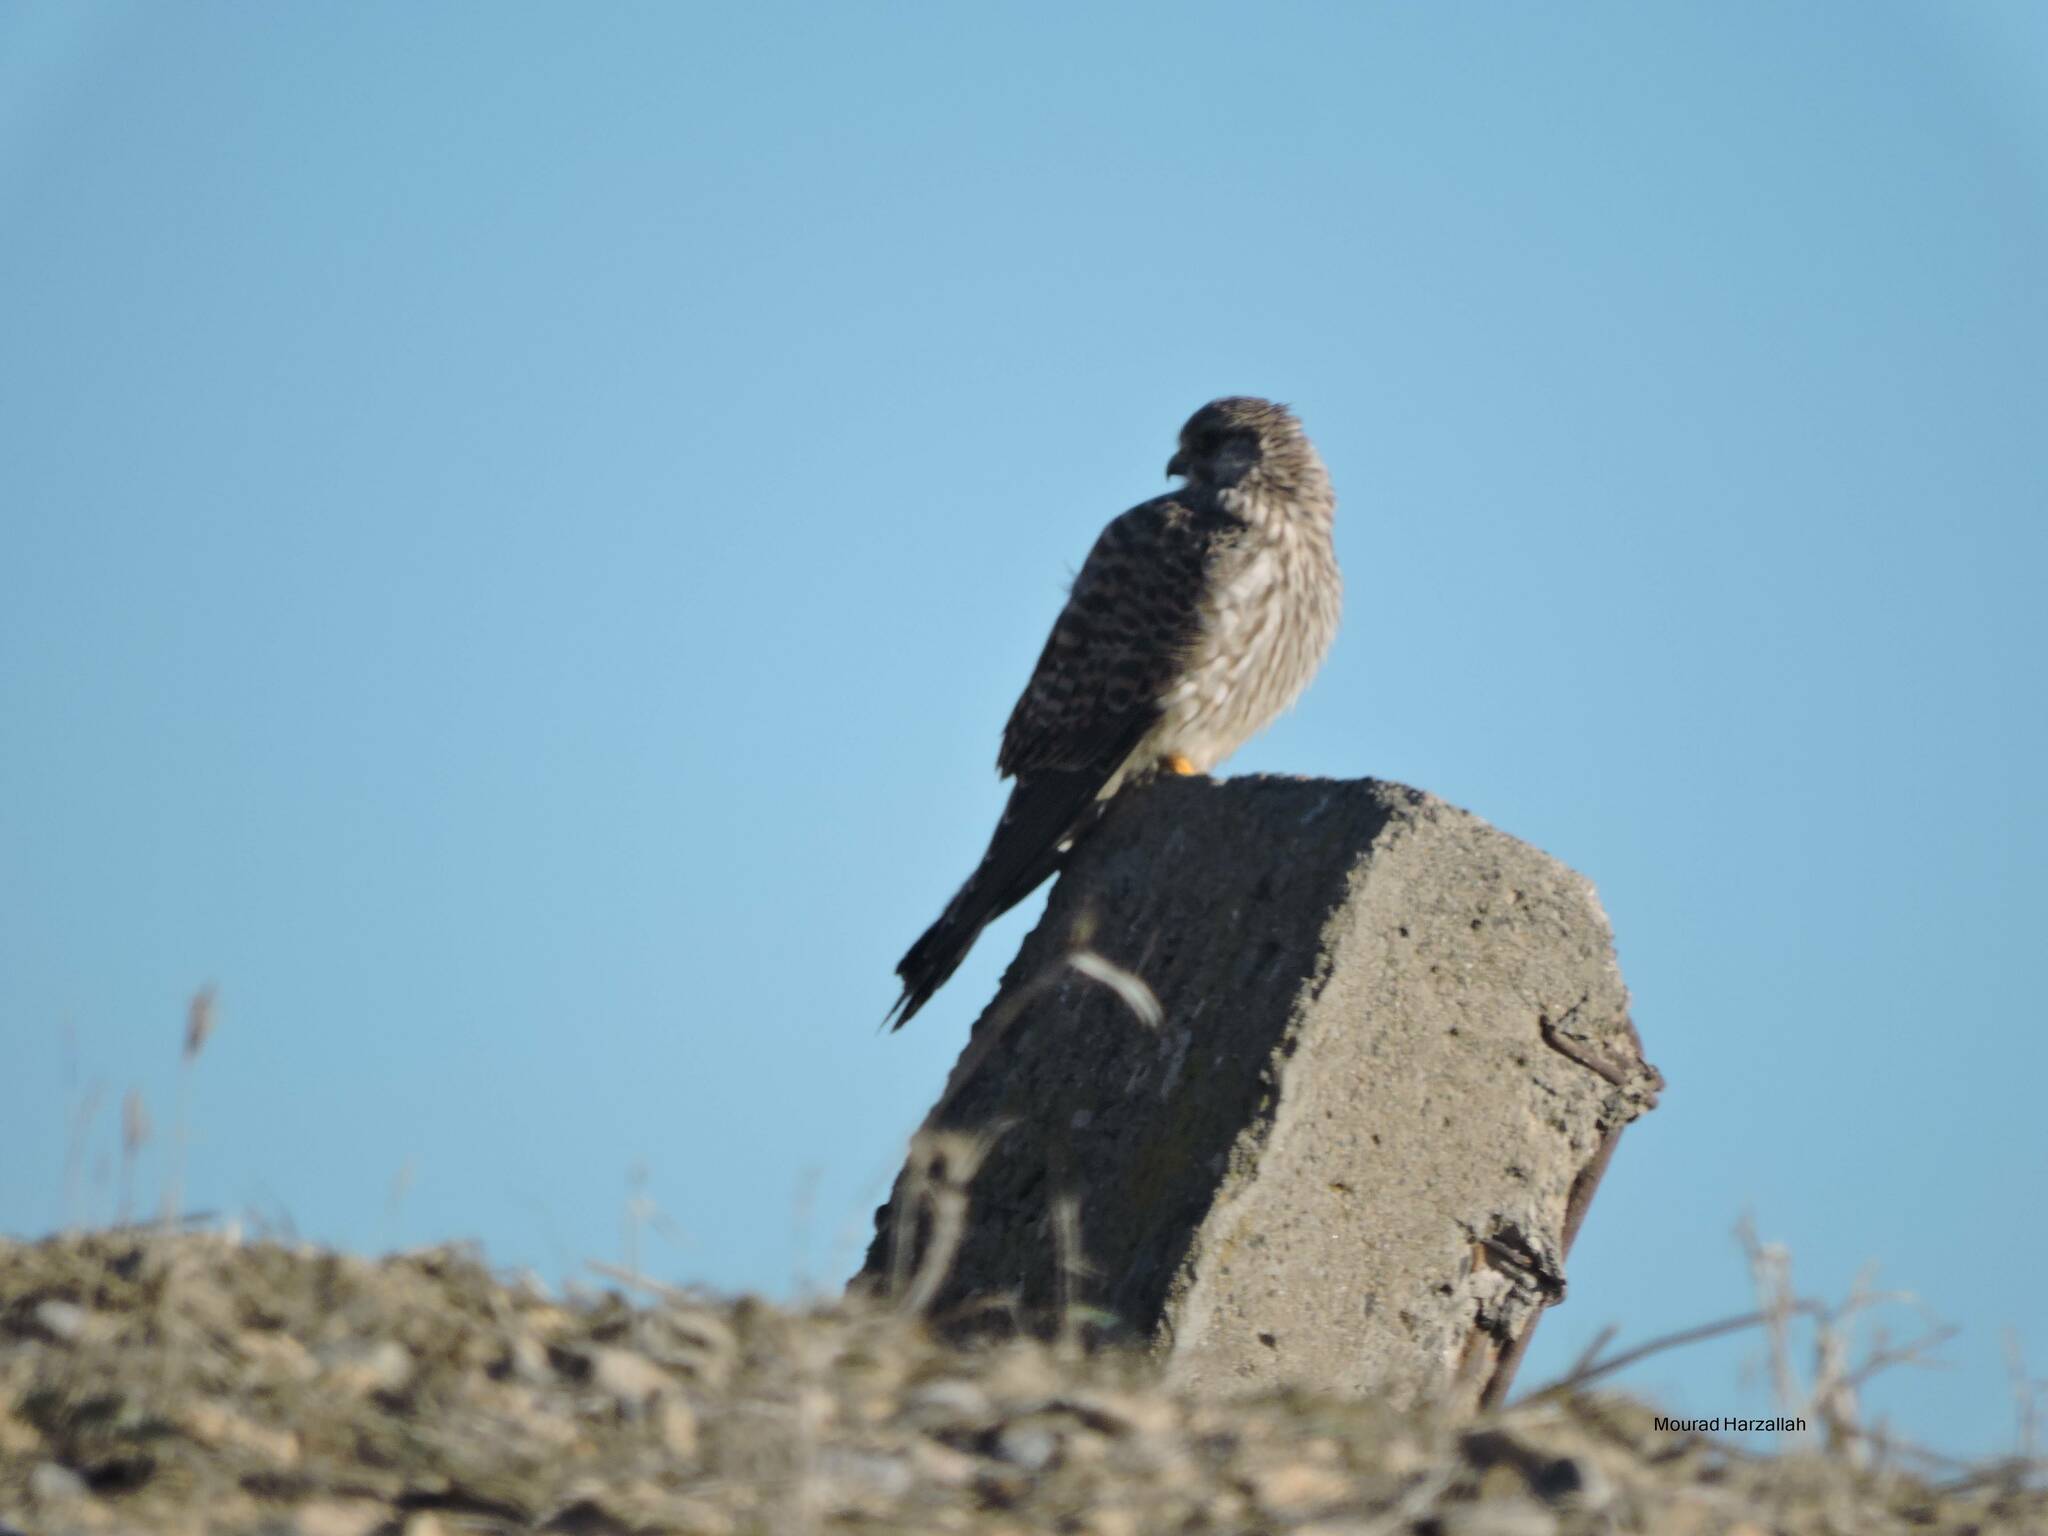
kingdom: Animalia
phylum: Chordata
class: Aves
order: Falconiformes
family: Falconidae
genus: Falco
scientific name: Falco tinnunculus
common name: Common kestrel
